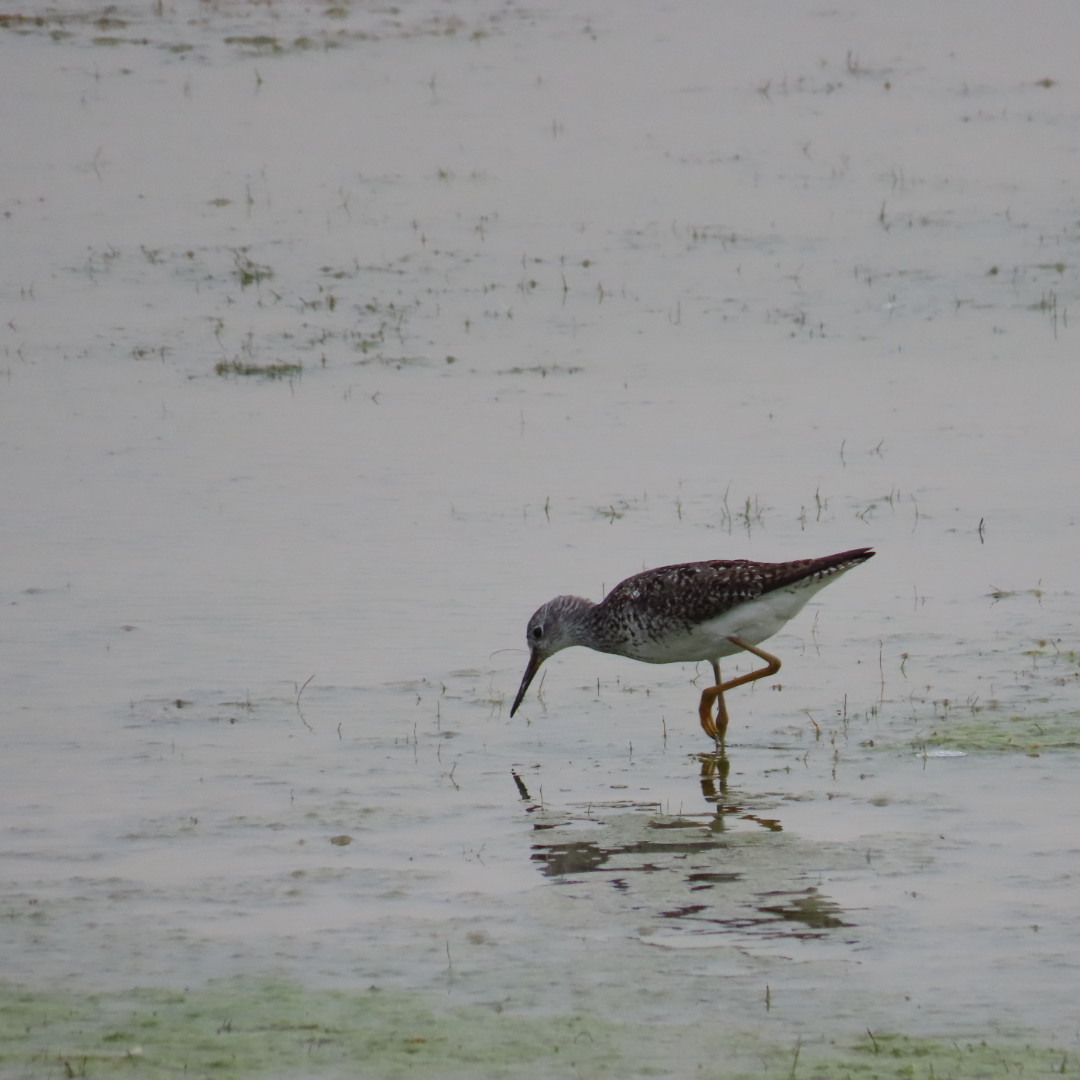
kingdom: Animalia
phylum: Chordata
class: Aves
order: Charadriiformes
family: Scolopacidae
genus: Tringa
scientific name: Tringa flavipes
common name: Lesser yellowlegs
